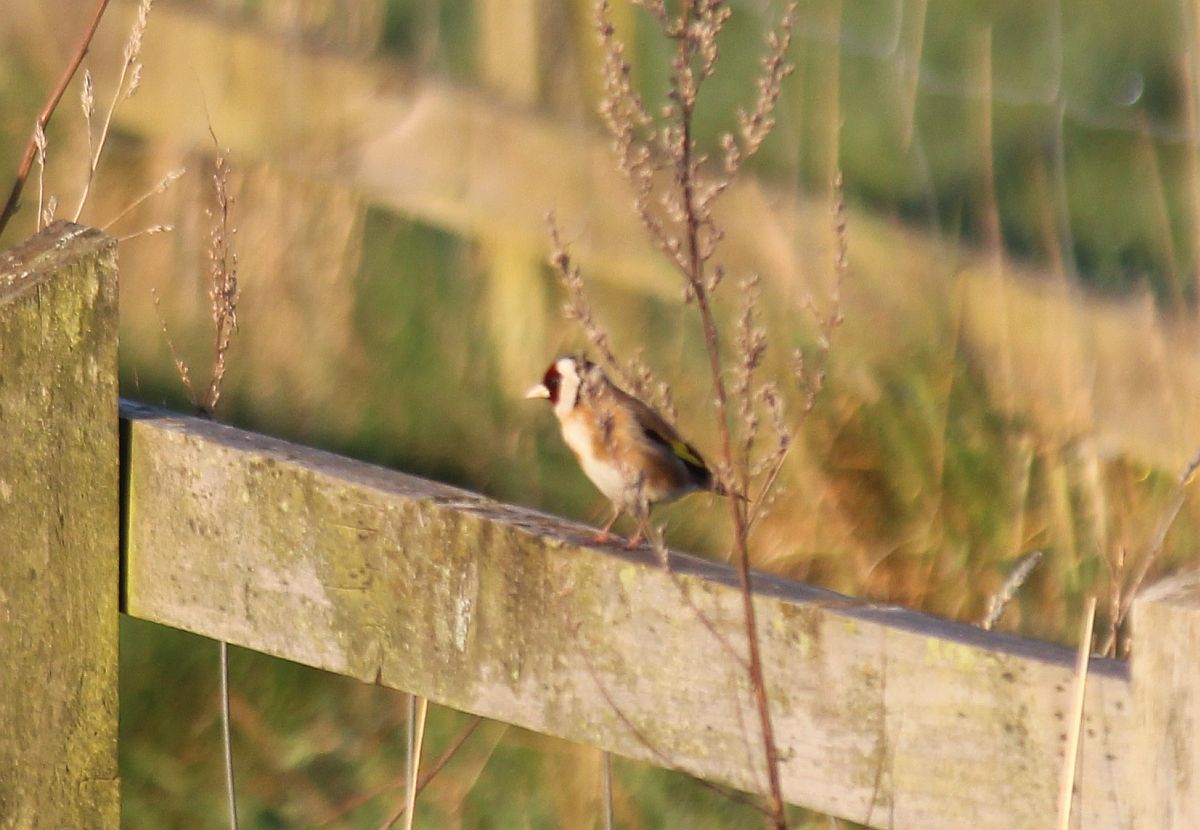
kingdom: Animalia
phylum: Chordata
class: Aves
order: Passeriformes
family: Fringillidae
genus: Carduelis
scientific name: Carduelis carduelis
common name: European goldfinch
